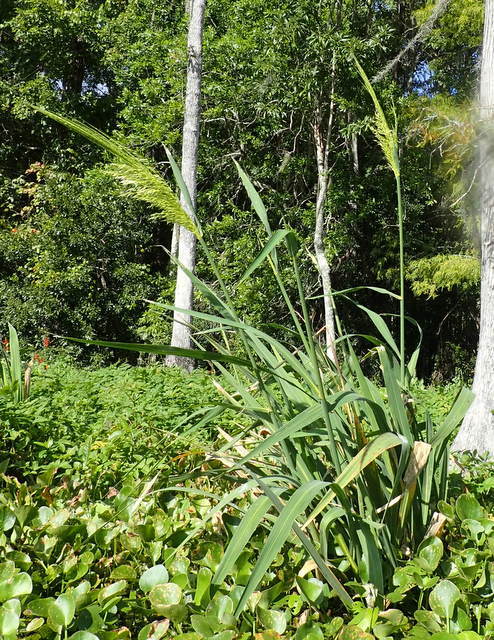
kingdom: Plantae
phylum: Tracheophyta
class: Liliopsida
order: Poales
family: Poaceae
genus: Zizania
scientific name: Zizania aquatica
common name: Annual wildrice
